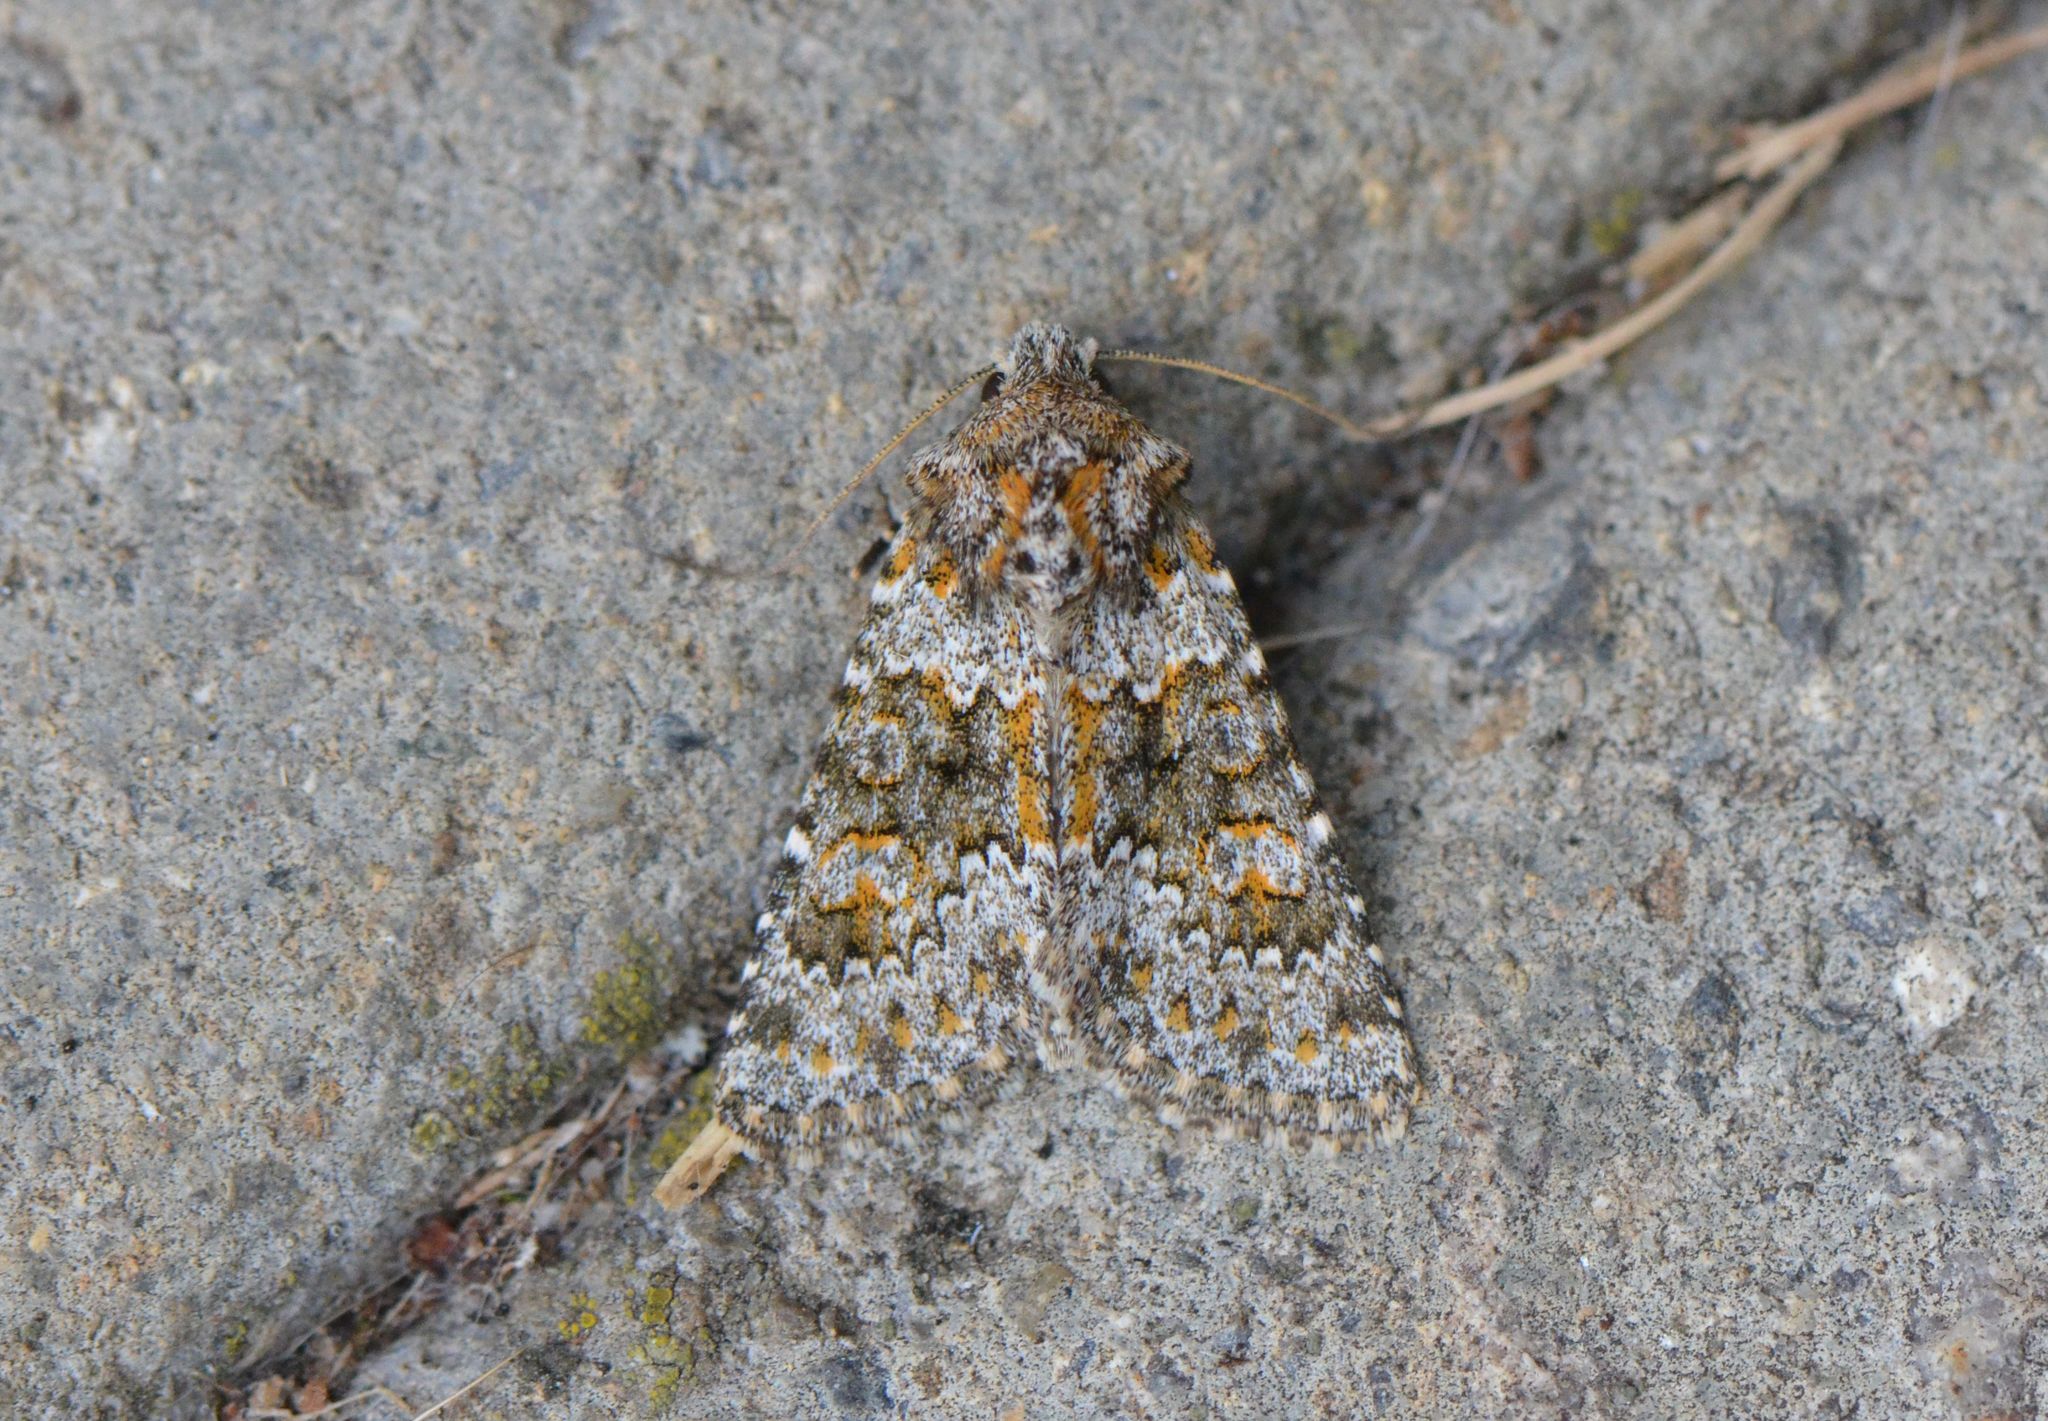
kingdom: Animalia
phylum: Arthropoda
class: Insecta
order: Lepidoptera
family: Noctuidae
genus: Hecatera
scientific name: Hecatera dysodea
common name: Small ranunculus
